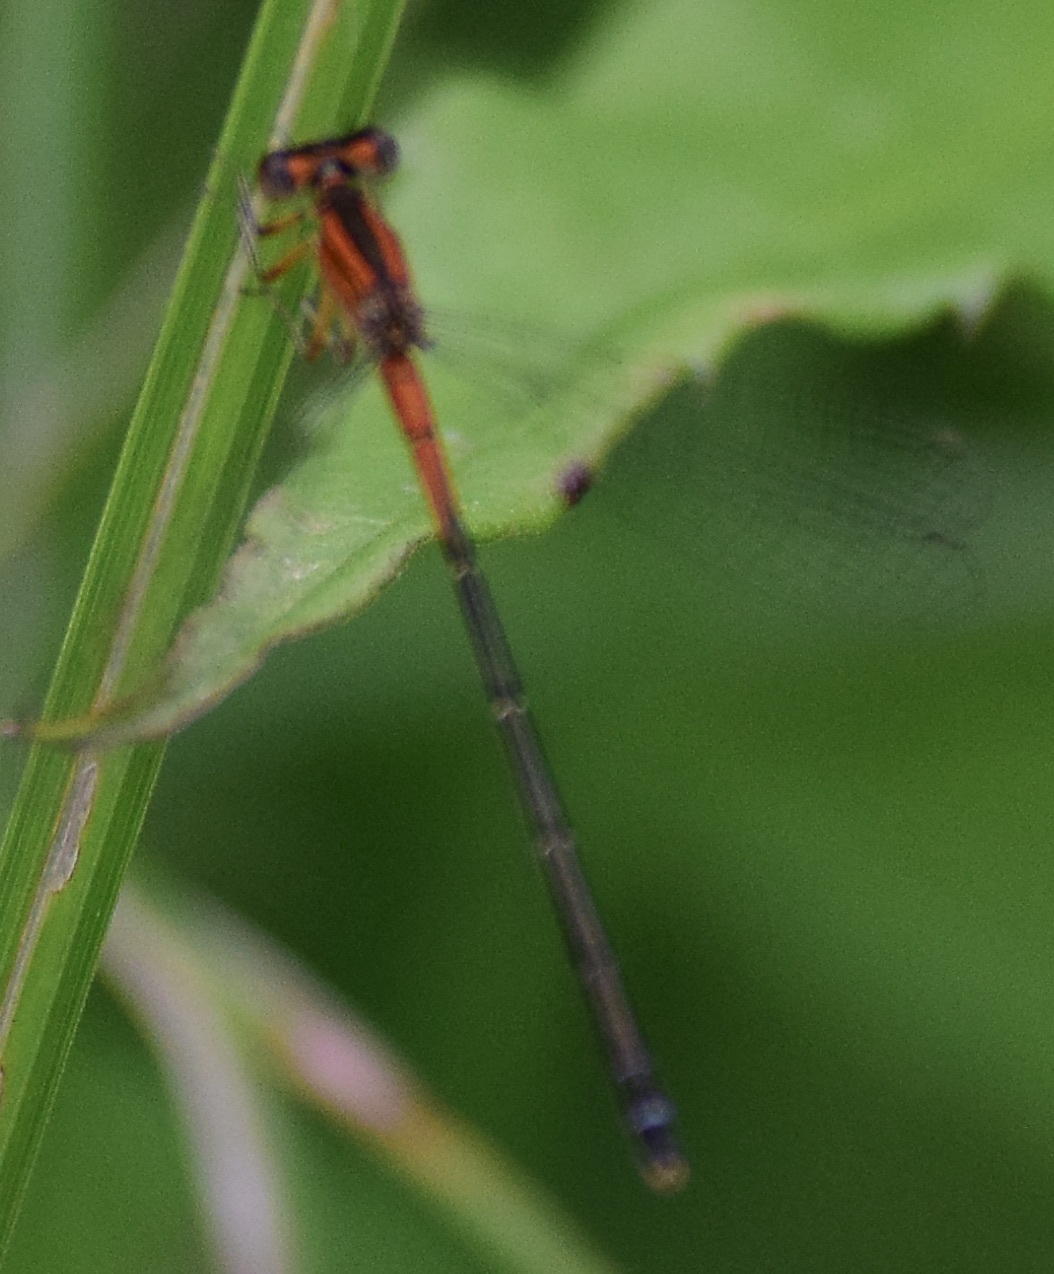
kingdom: Animalia
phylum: Arthropoda
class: Insecta
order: Odonata
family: Coenagrionidae
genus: Ischnura
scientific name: Ischnura verticalis
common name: Eastern forktail
